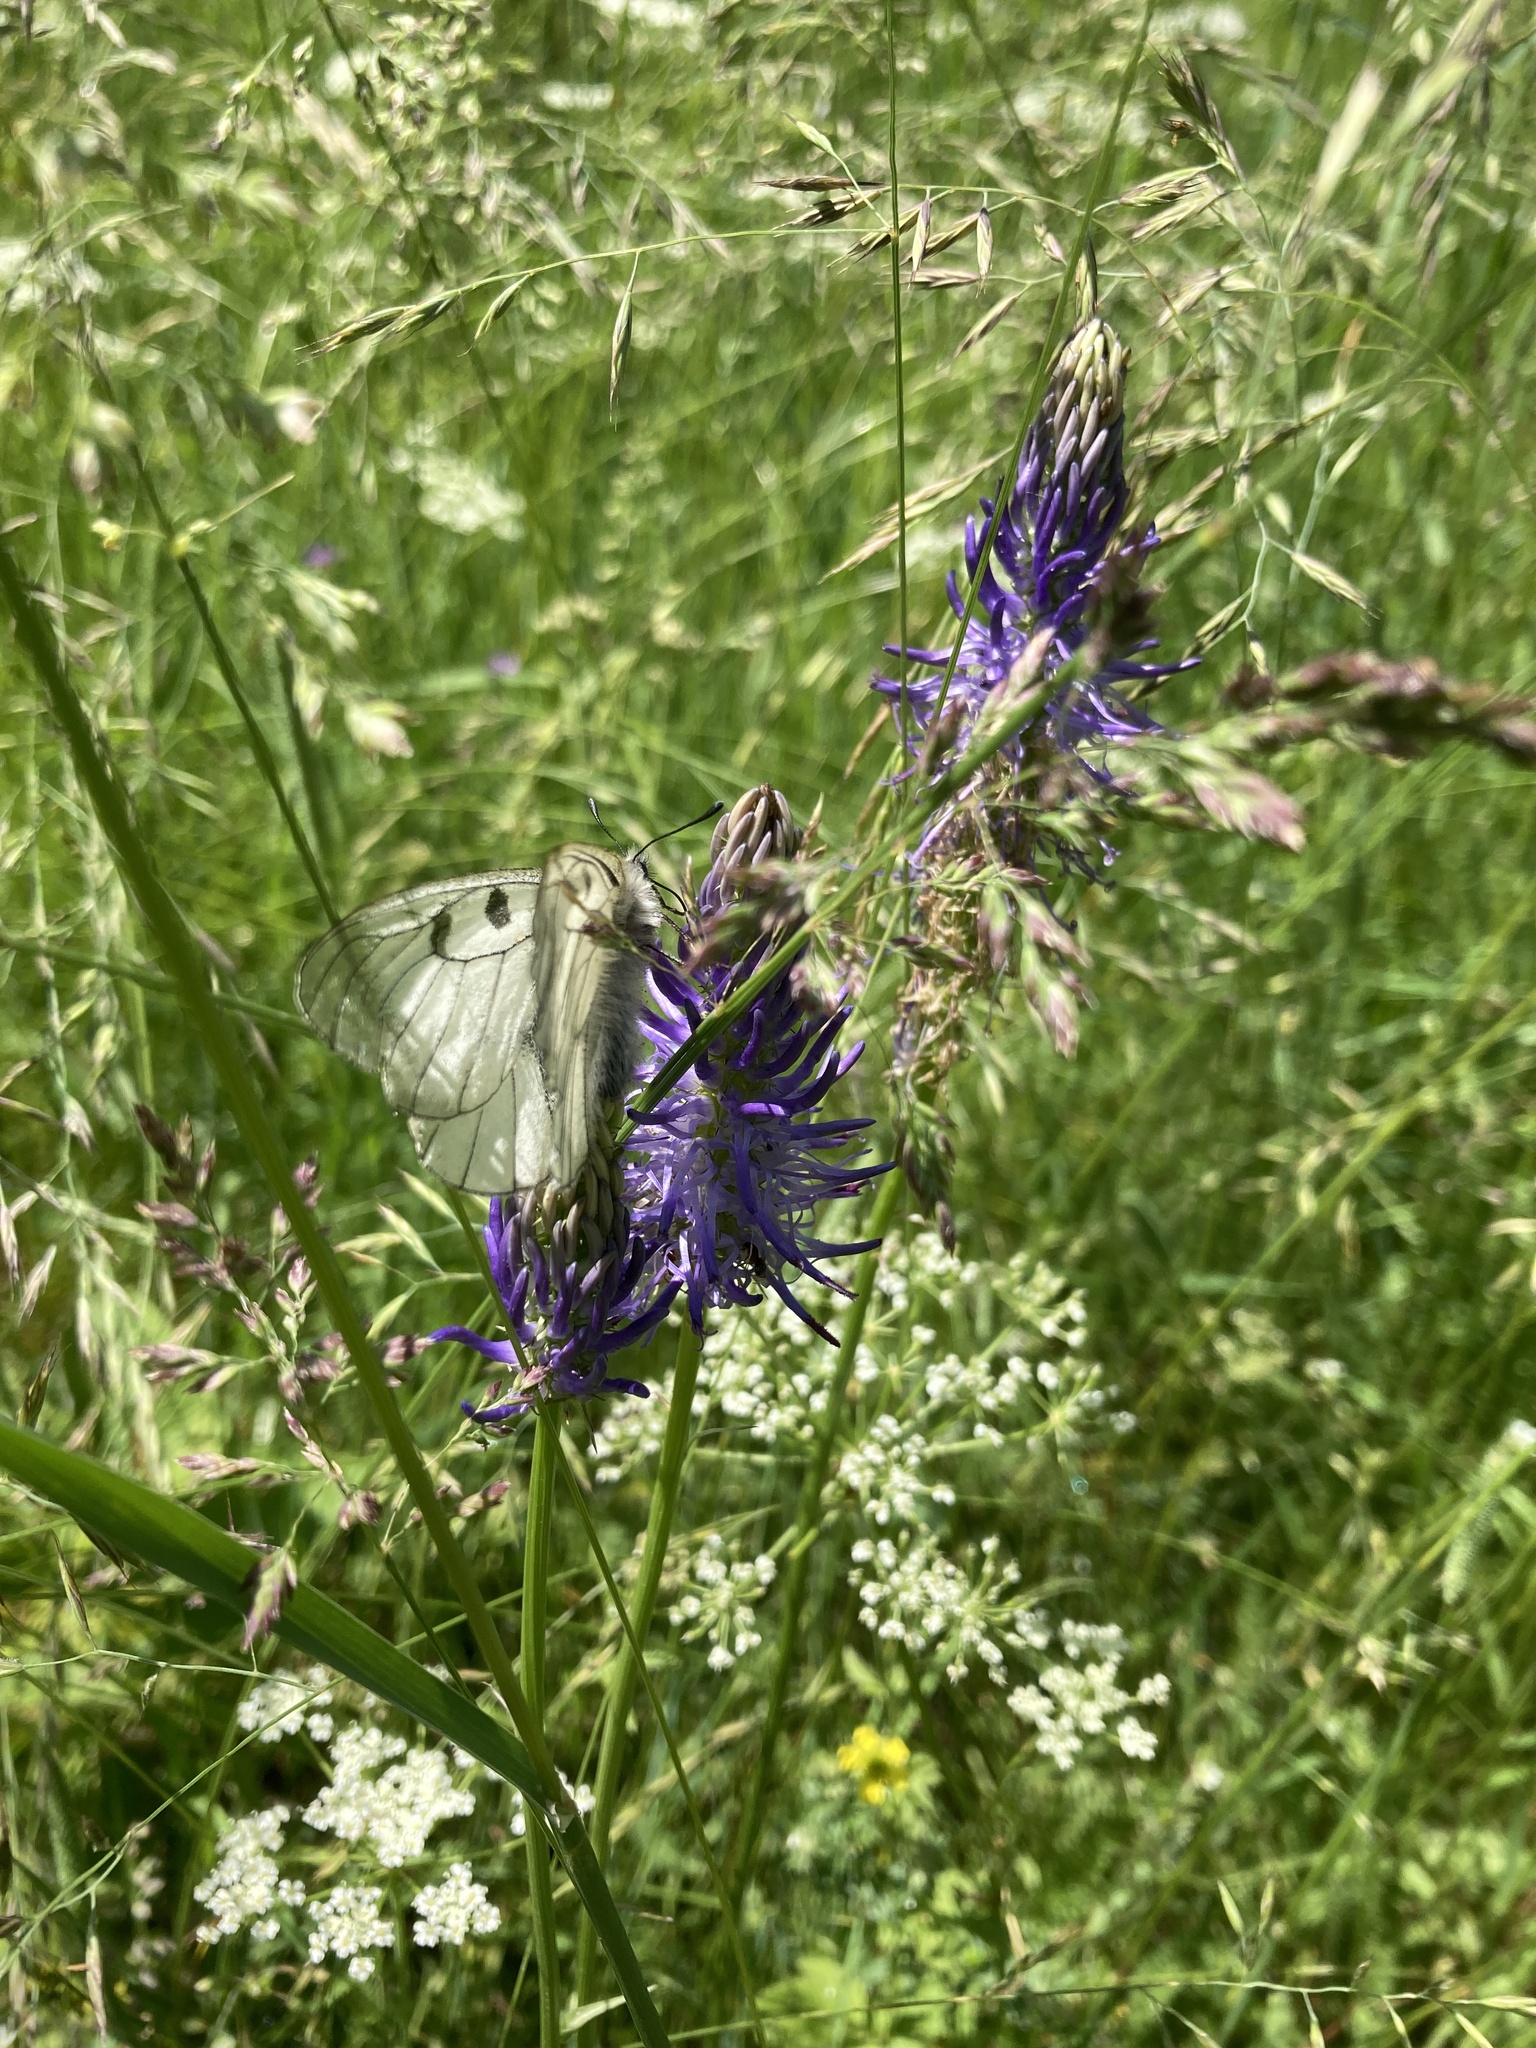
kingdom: Animalia
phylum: Arthropoda
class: Insecta
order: Lepidoptera
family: Papilionidae
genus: Parnassius
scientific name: Parnassius mnemosyne
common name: Clouded apollo
